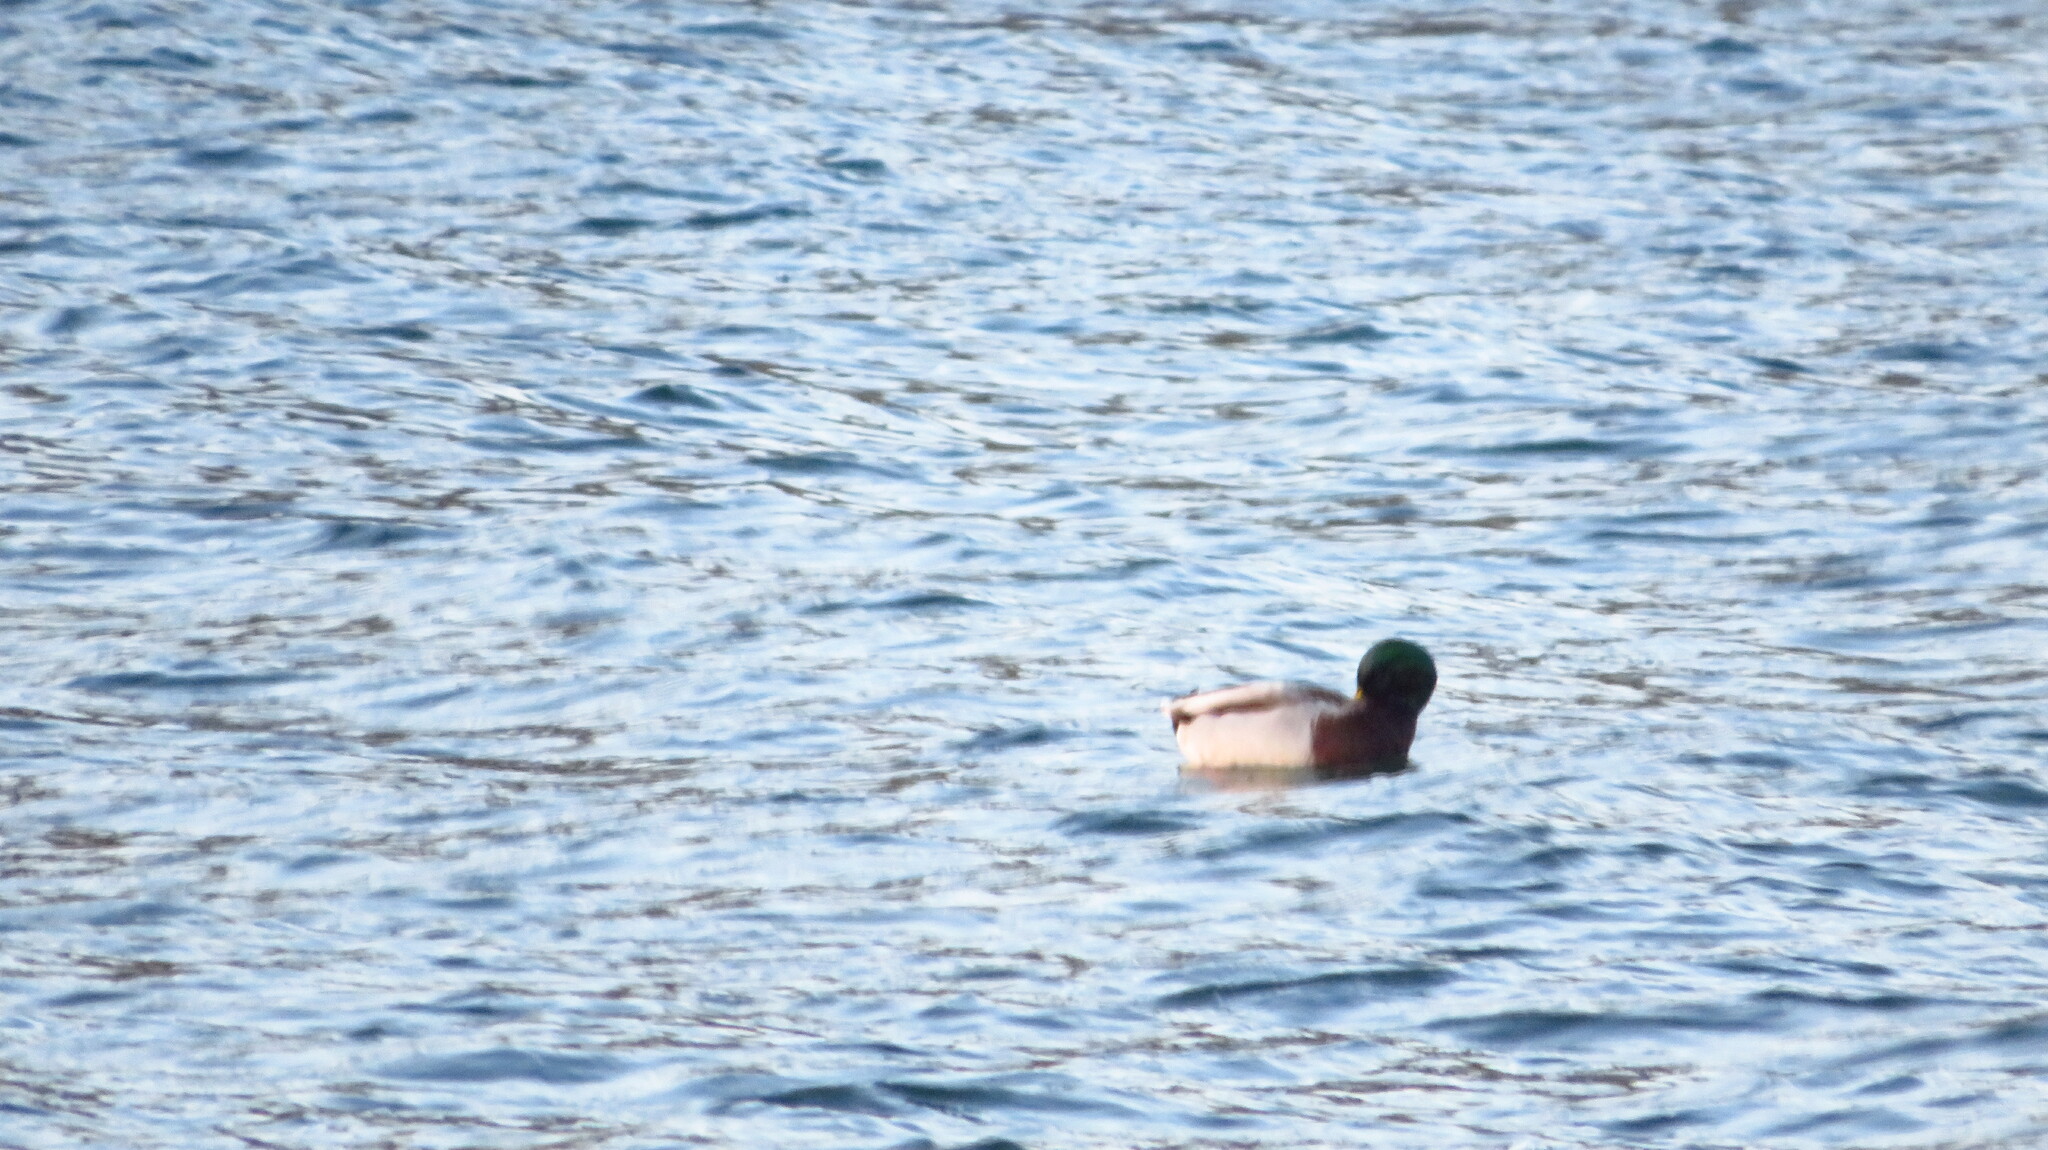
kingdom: Animalia
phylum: Chordata
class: Aves
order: Anseriformes
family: Anatidae
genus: Anas
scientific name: Anas platyrhynchos
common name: Mallard
